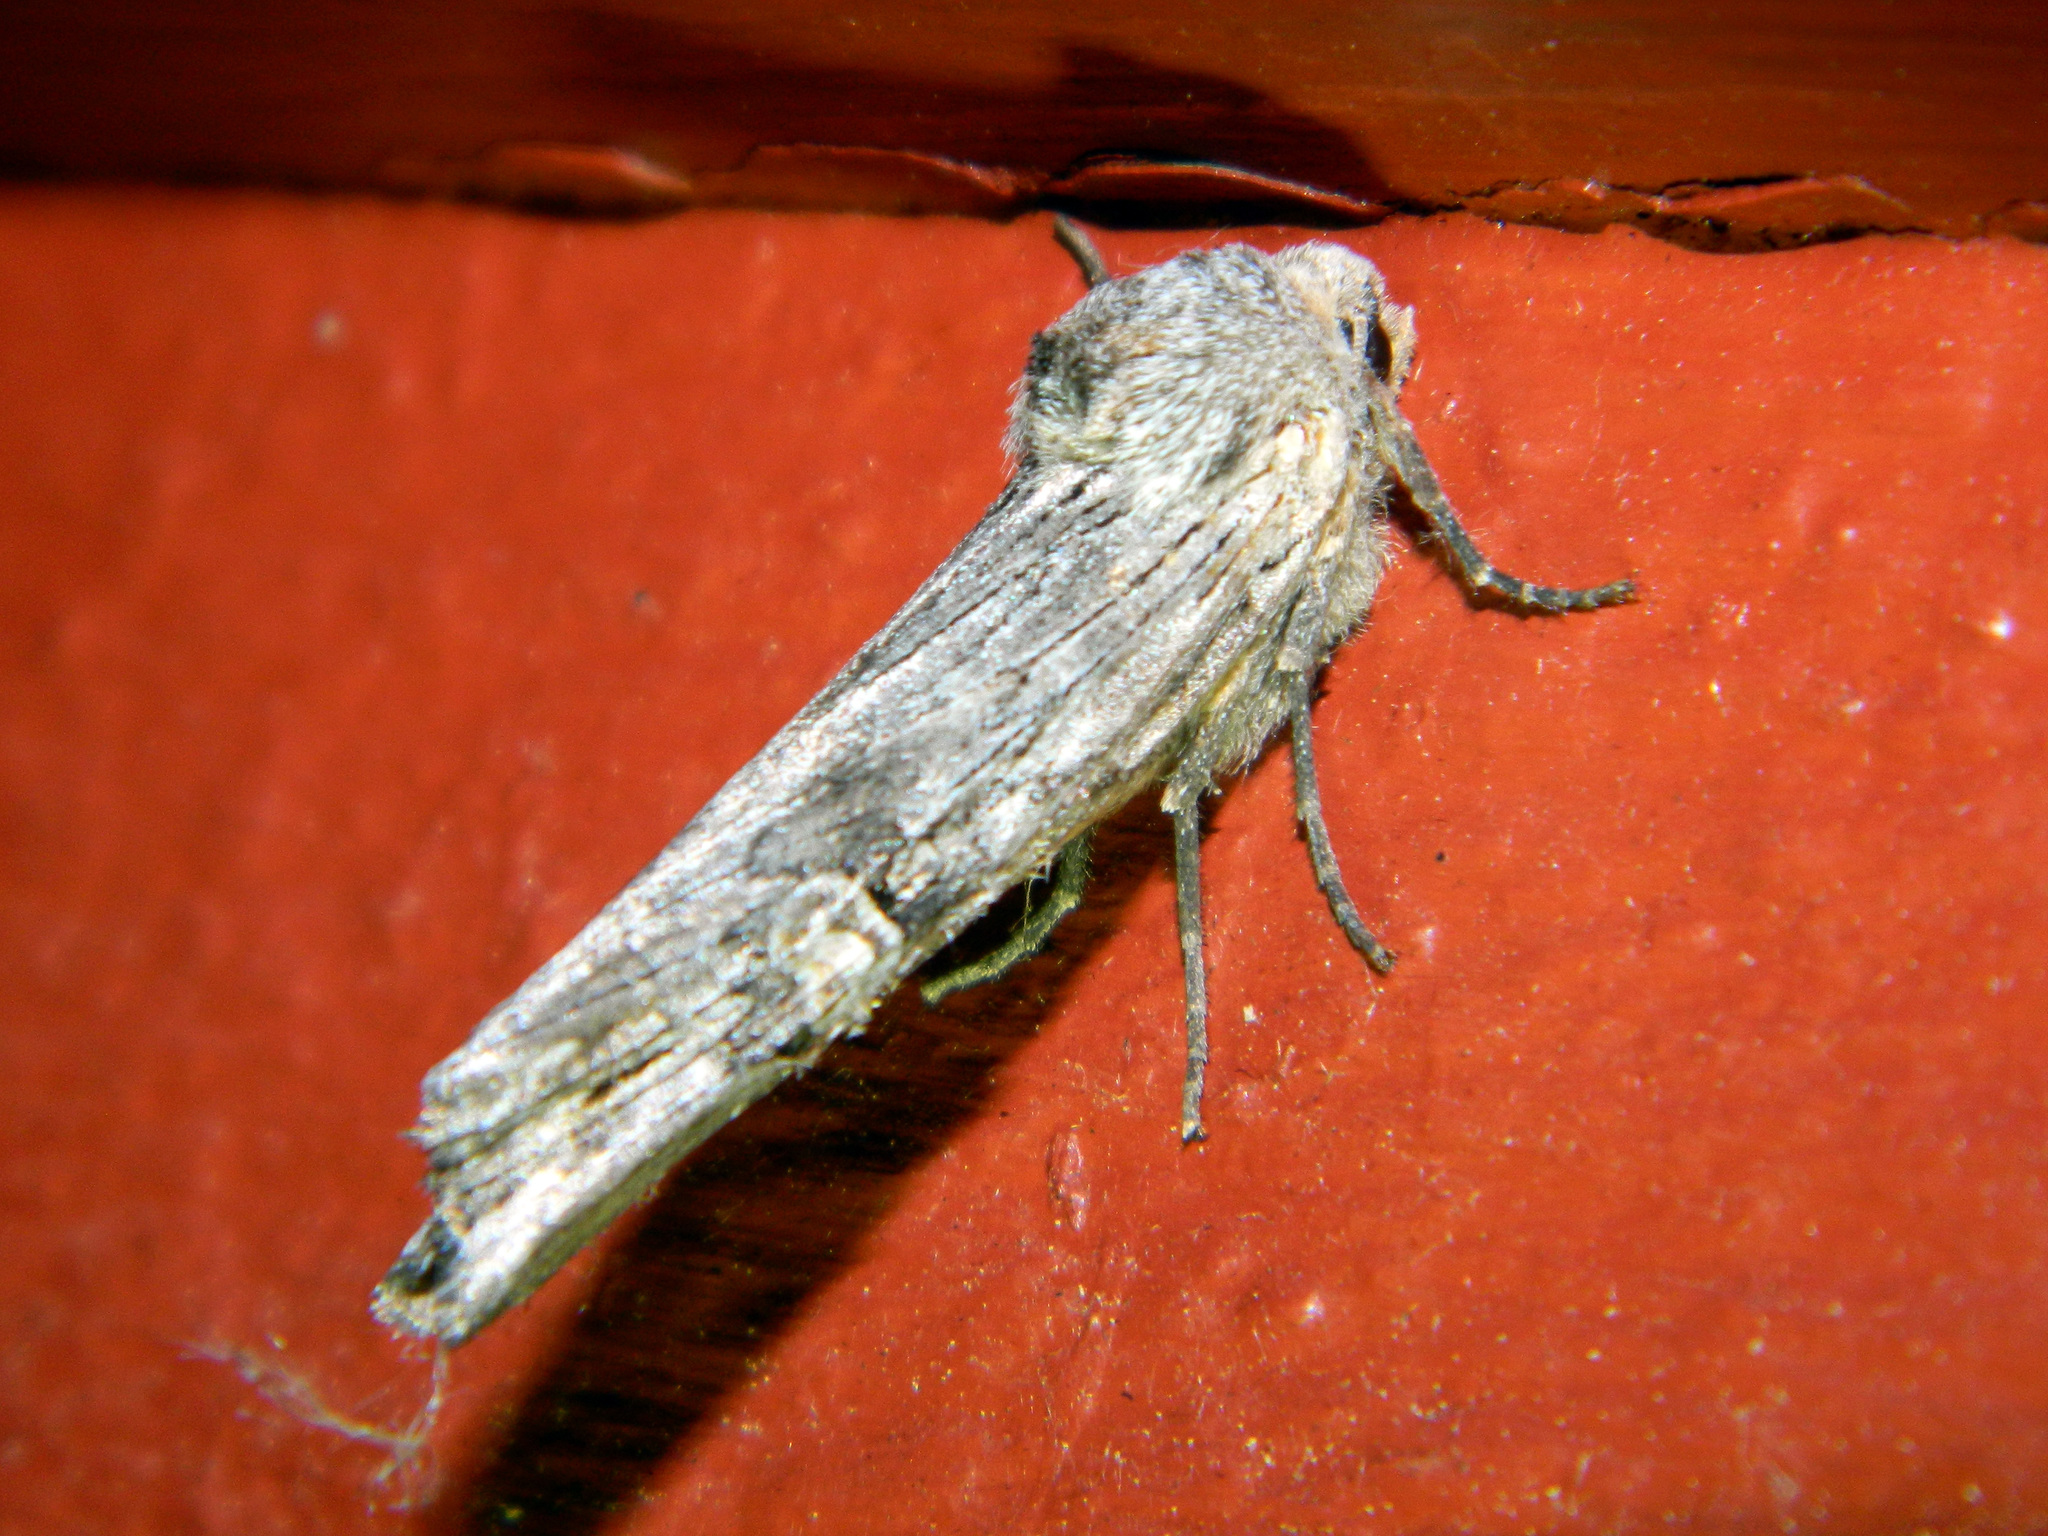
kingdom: Animalia
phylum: Arthropoda
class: Insecta
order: Lepidoptera
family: Noctuidae
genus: Xylena
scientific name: Xylena germana
